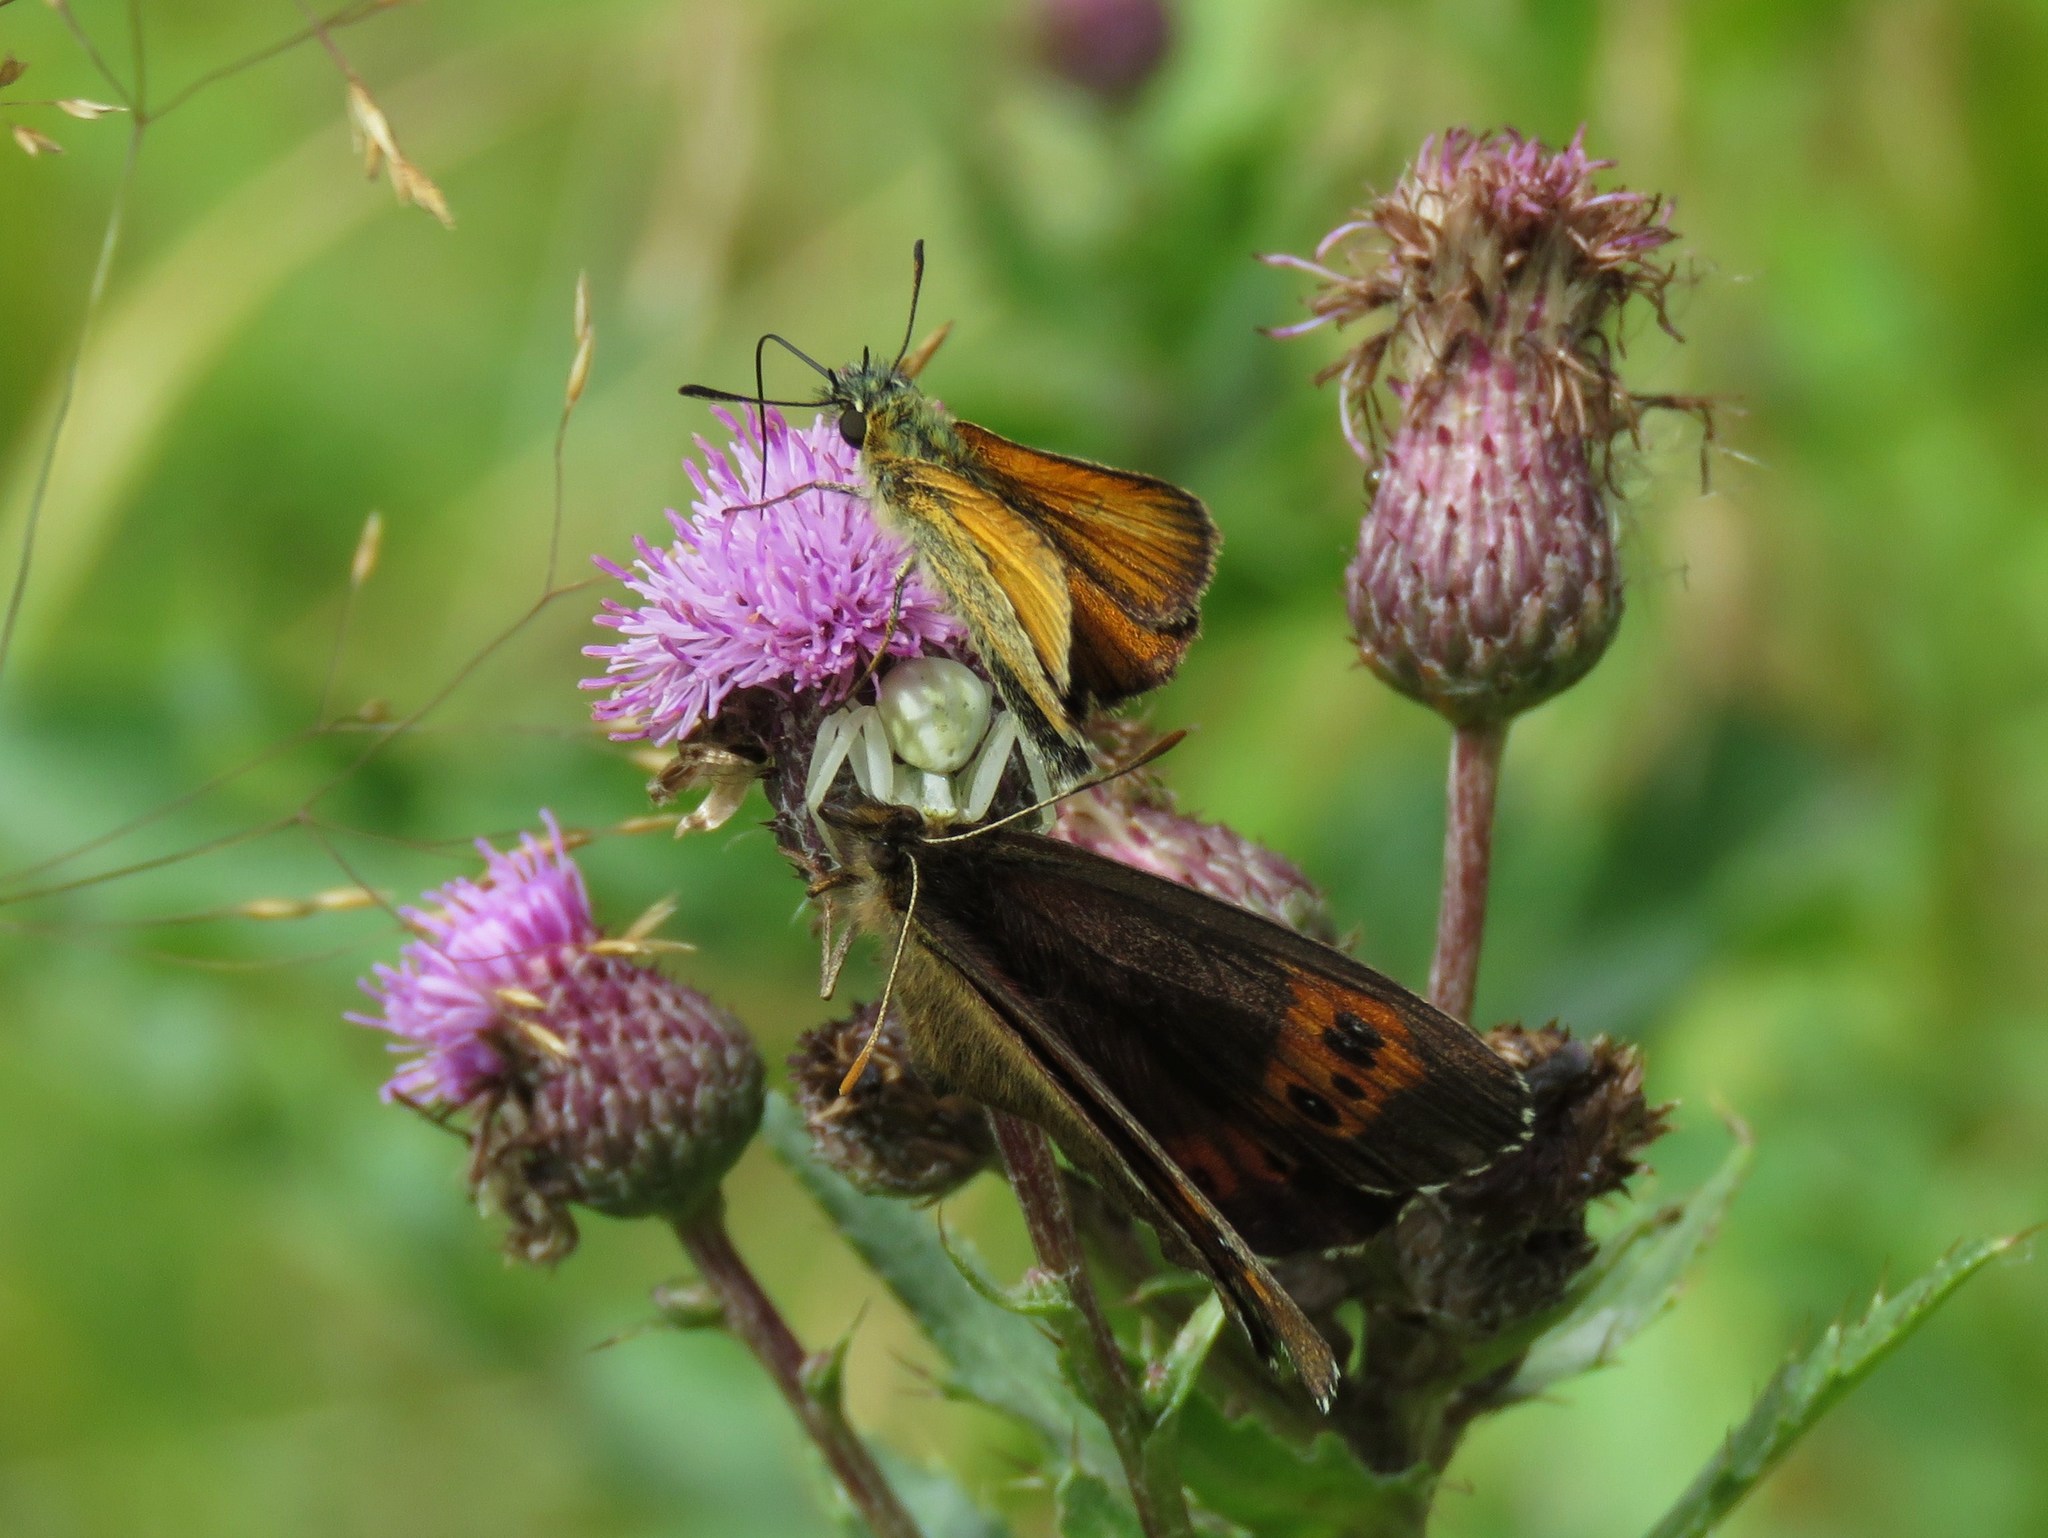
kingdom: Animalia
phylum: Arthropoda
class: Insecta
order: Lepidoptera
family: Hesperiidae
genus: Thymelicus
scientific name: Thymelicus lineola
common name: Essex skipper
